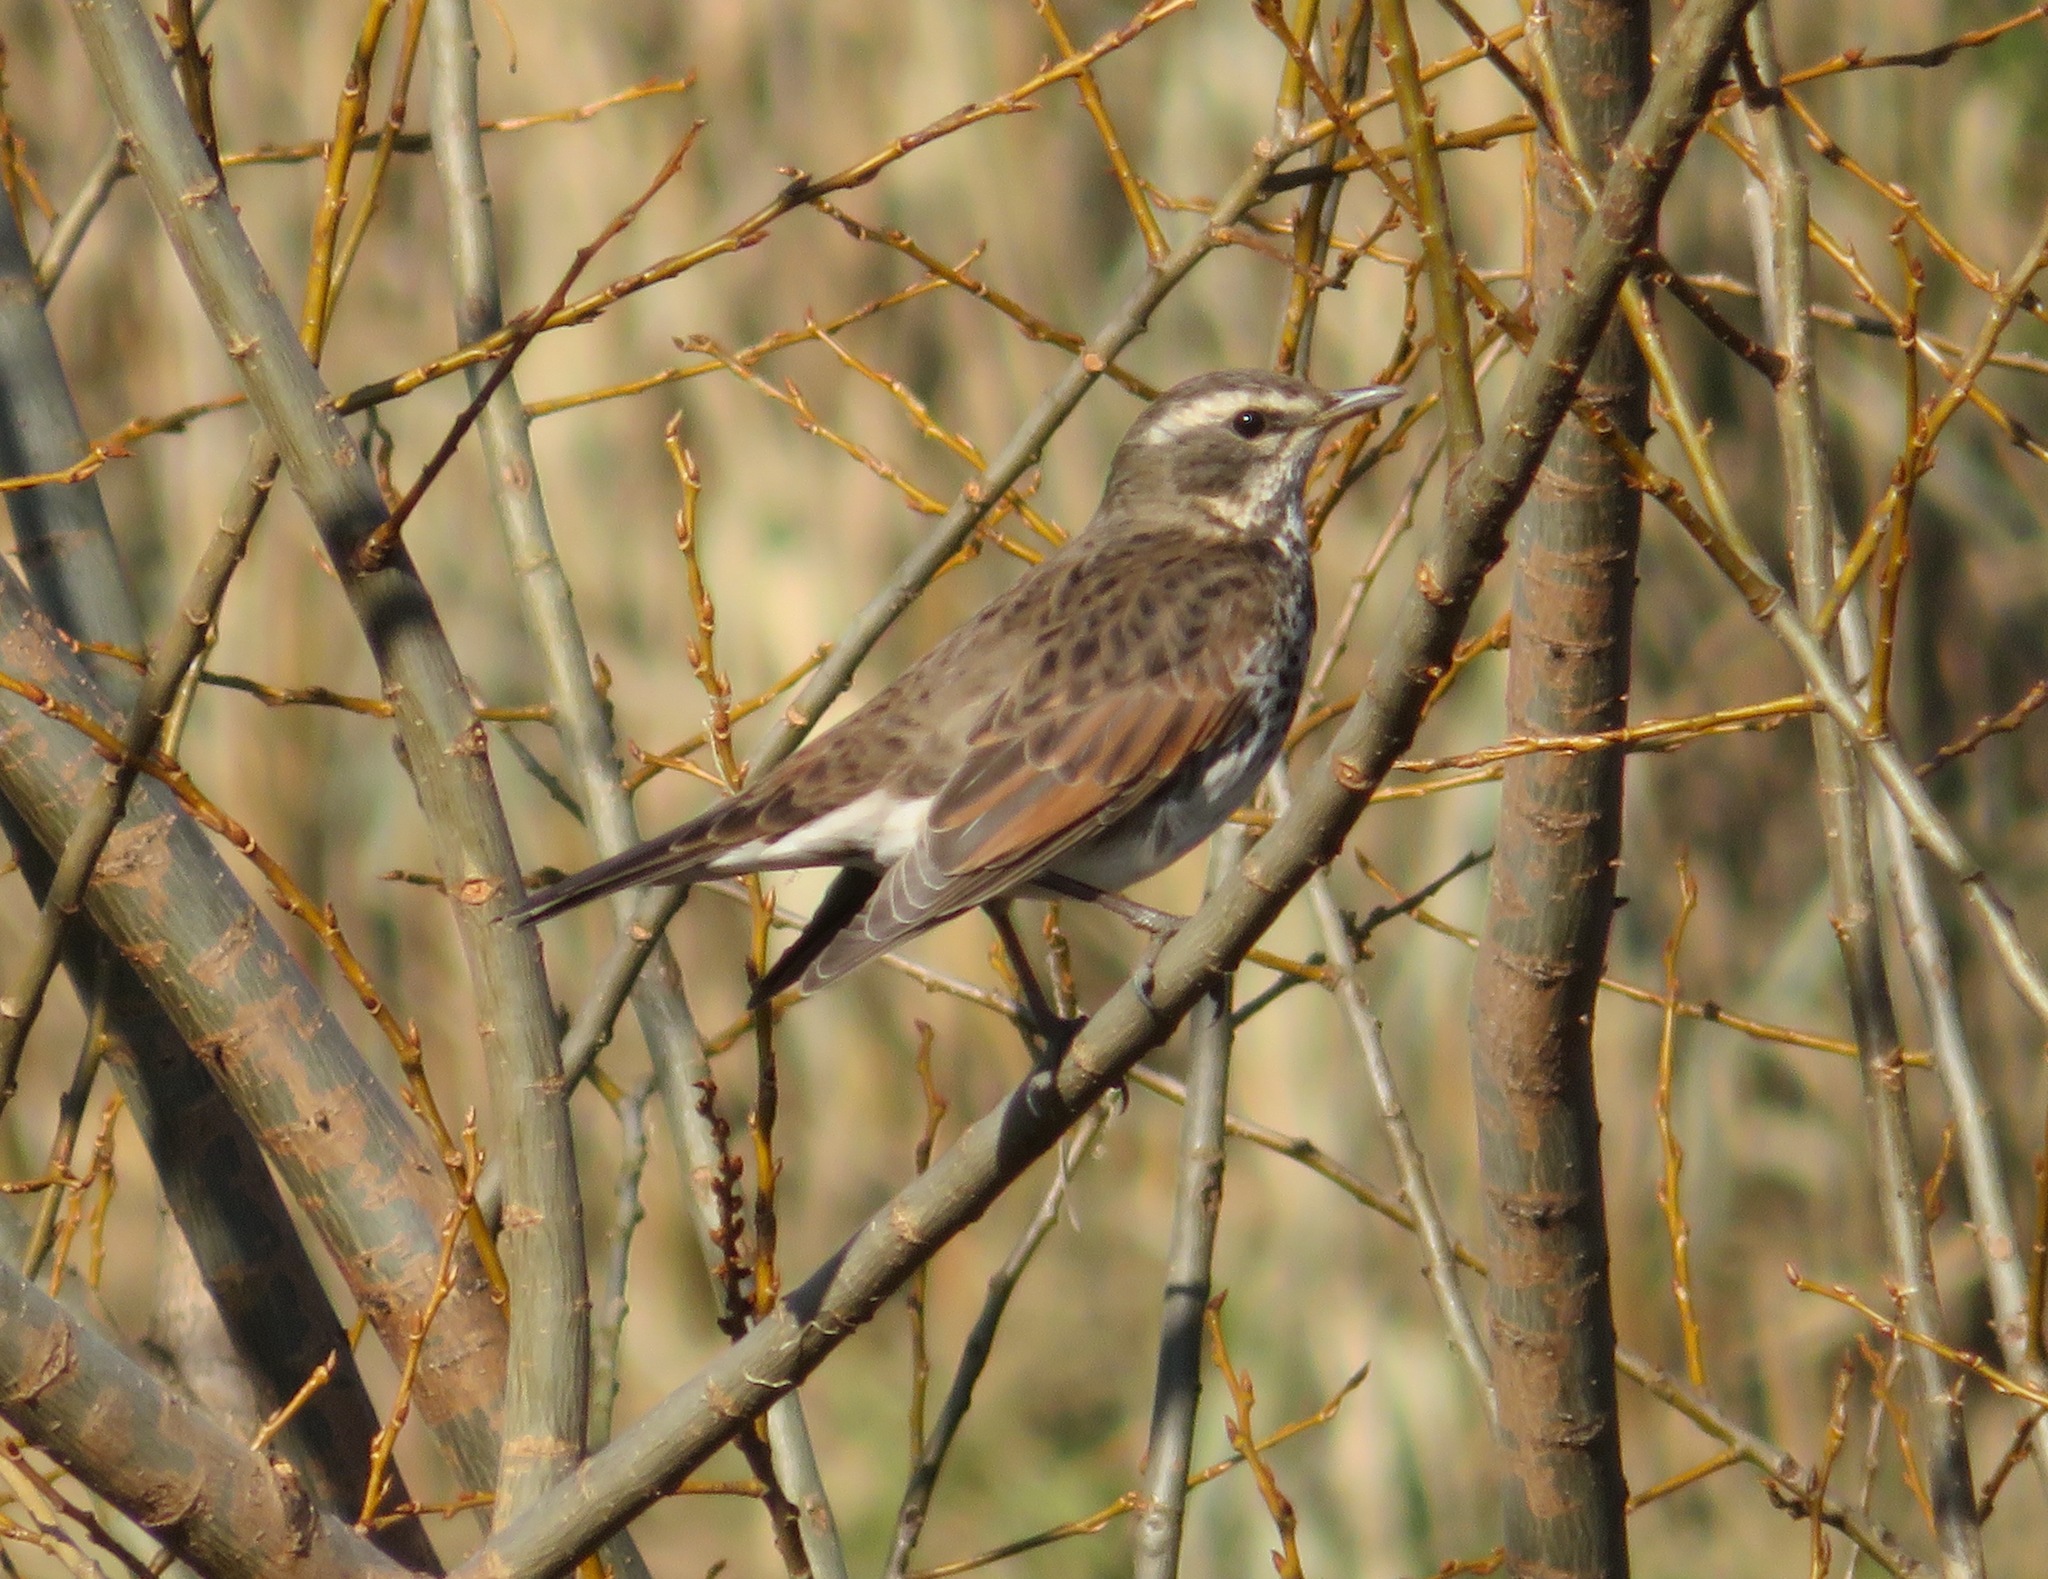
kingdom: Animalia
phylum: Chordata
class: Aves
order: Passeriformes
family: Turdidae
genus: Turdus
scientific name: Turdus eunomus
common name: Dusky thrush
